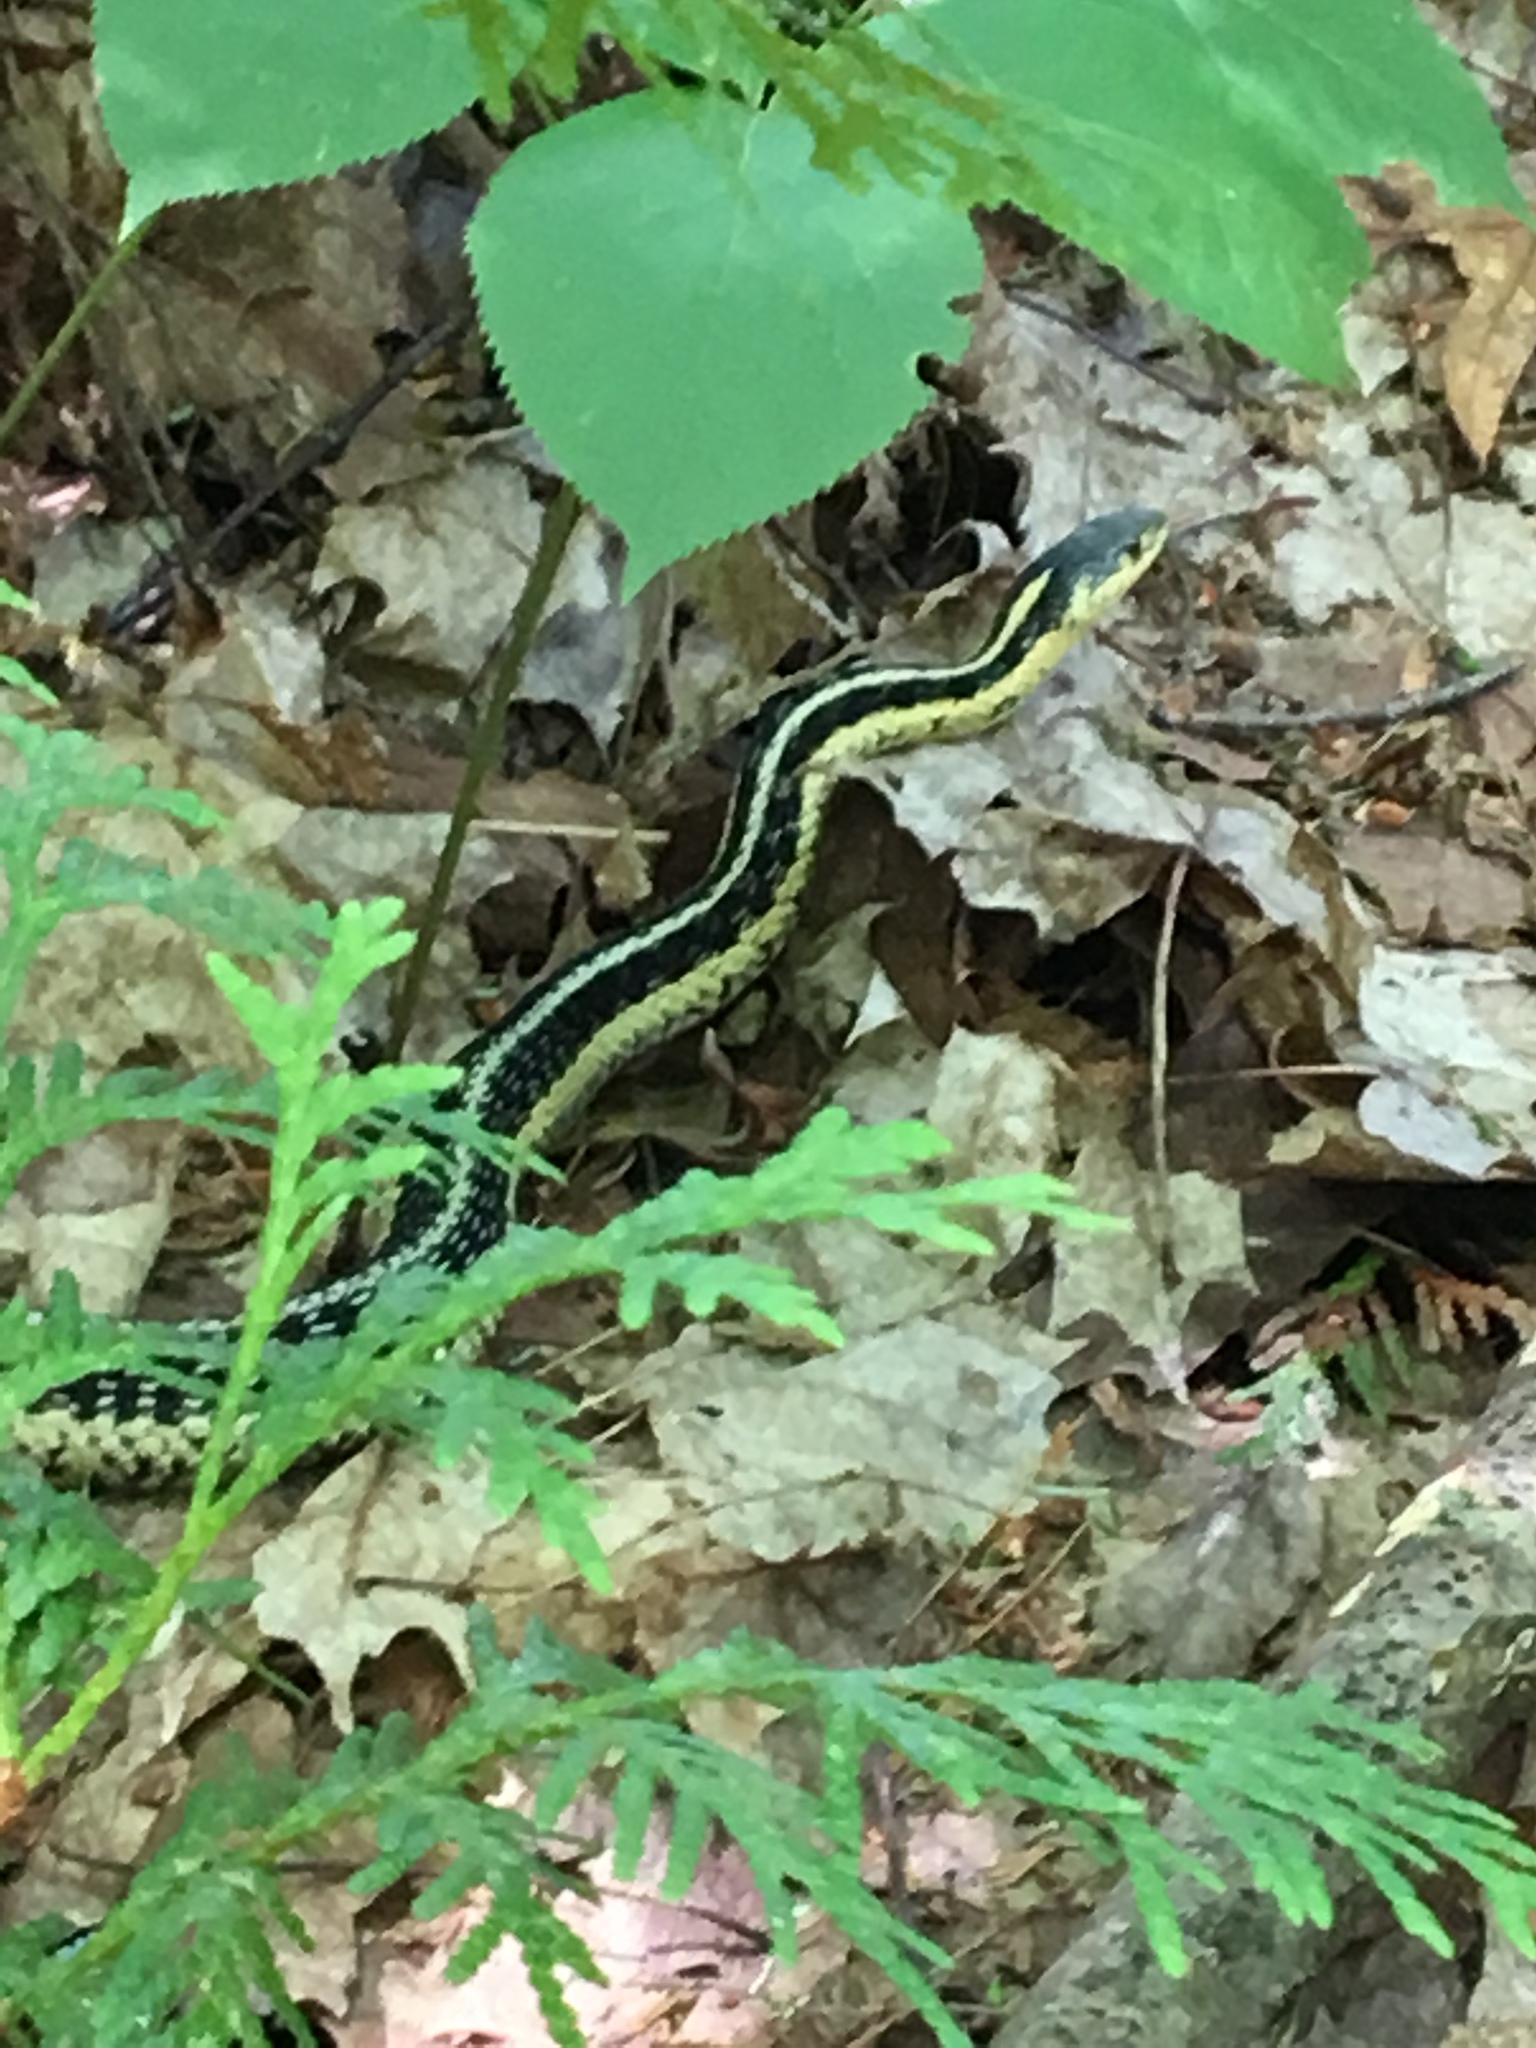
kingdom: Animalia
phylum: Chordata
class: Squamata
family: Colubridae
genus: Thamnophis
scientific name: Thamnophis sirtalis
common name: Common garter snake
